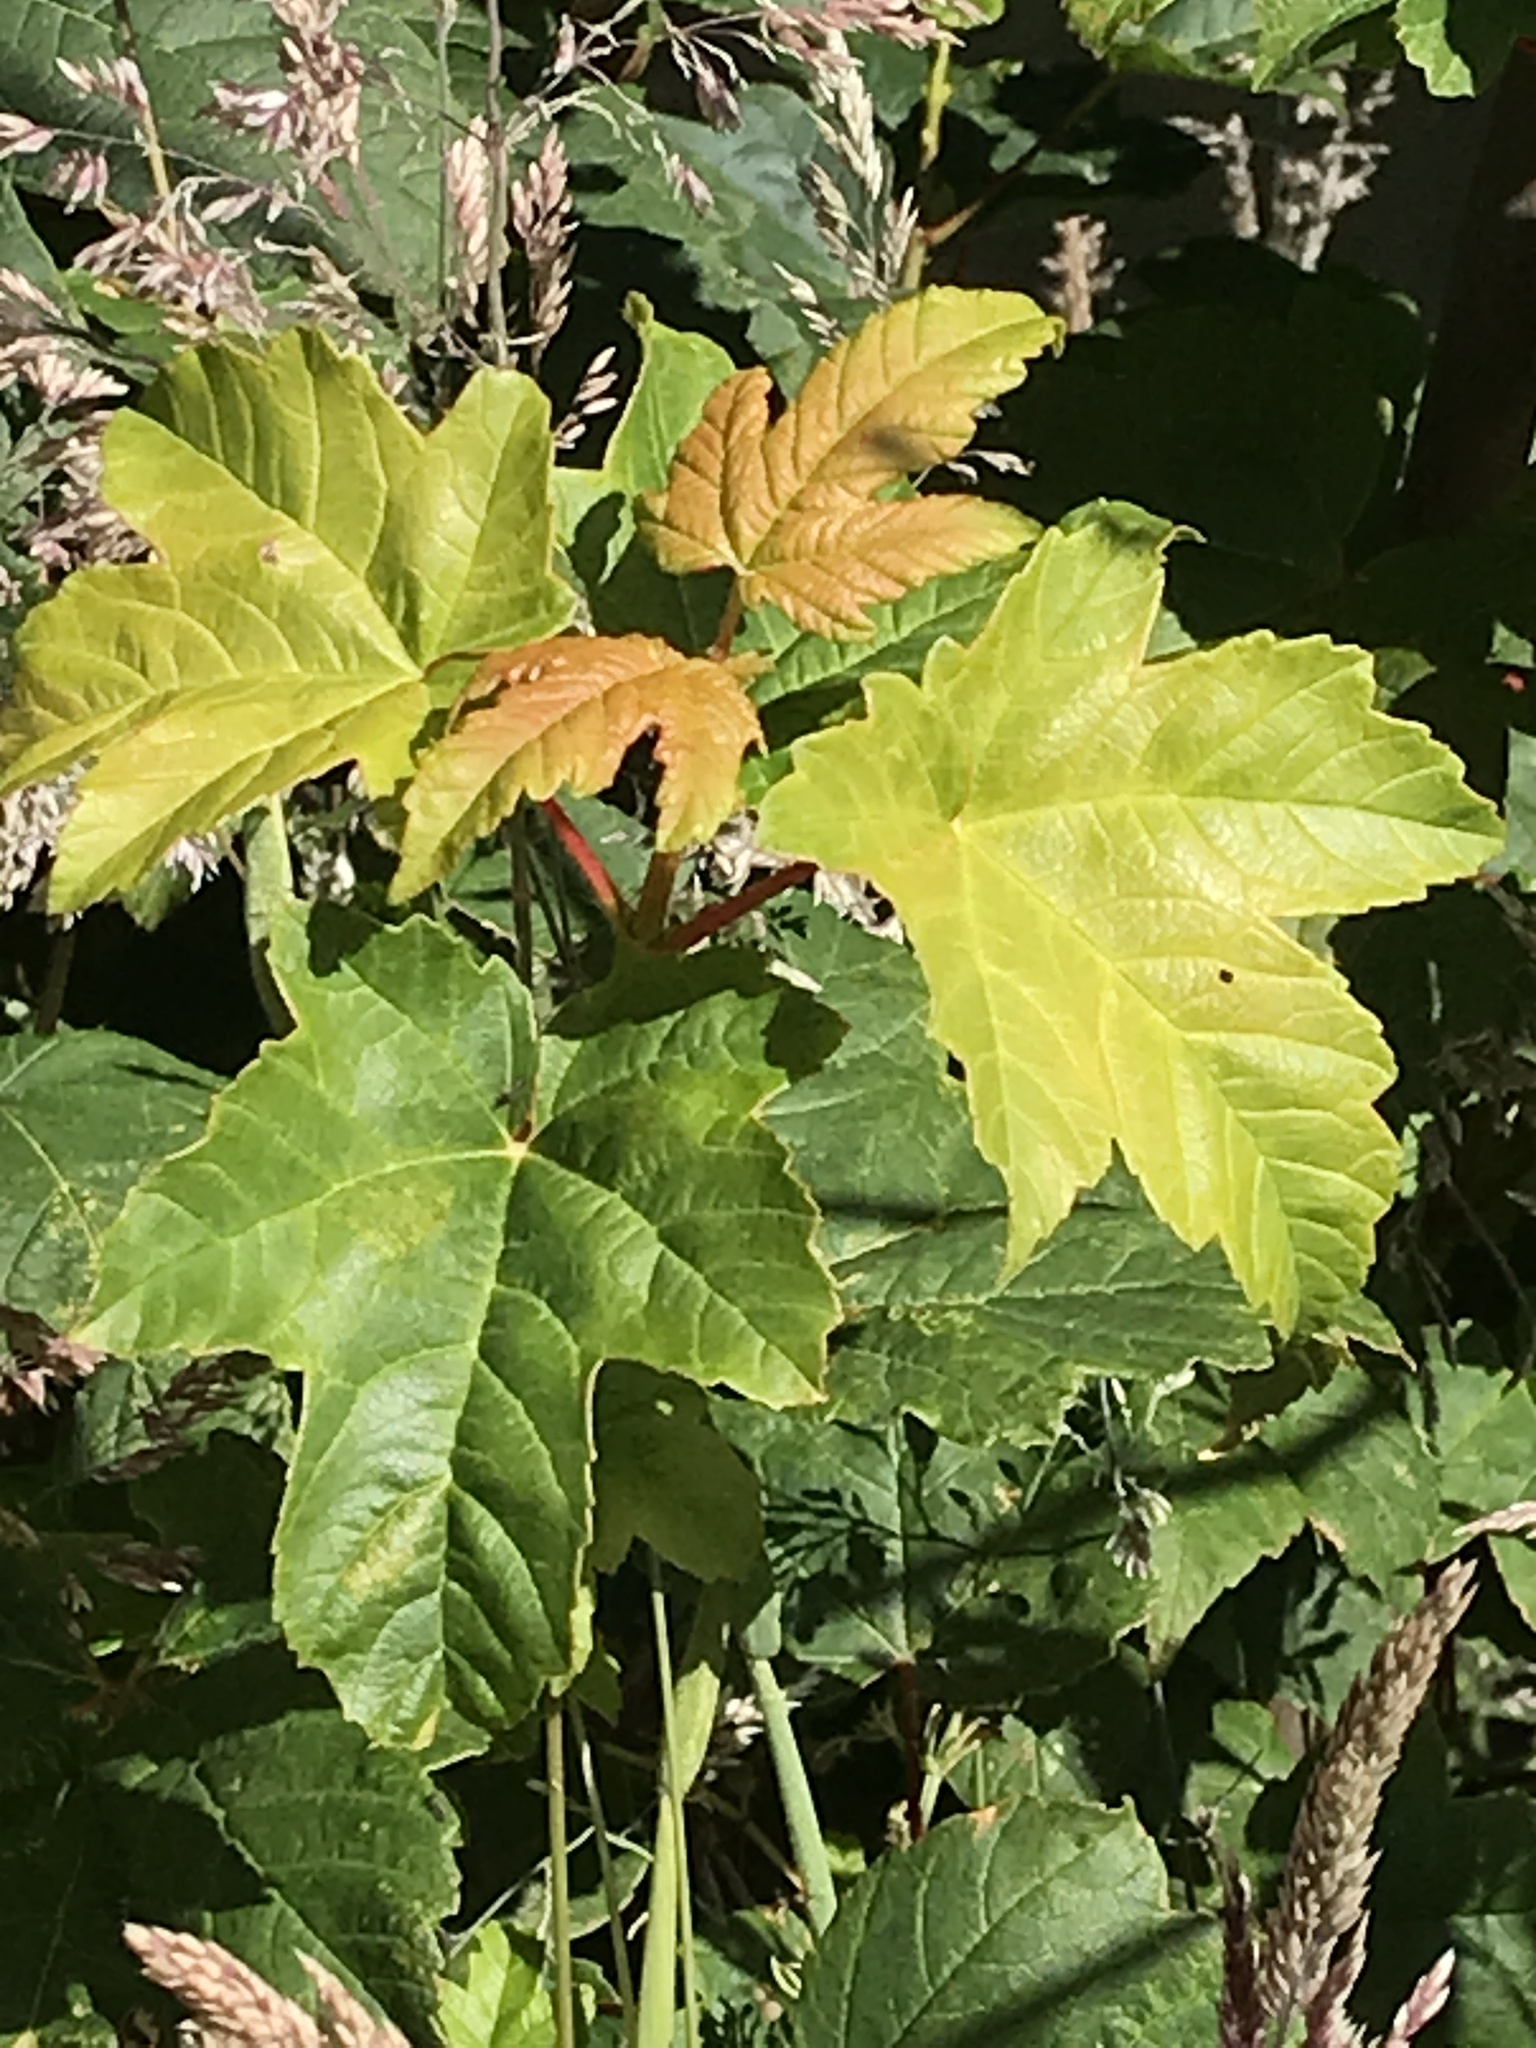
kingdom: Plantae
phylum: Tracheophyta
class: Magnoliopsida
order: Sapindales
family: Sapindaceae
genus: Acer
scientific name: Acer pseudoplatanus
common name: Sycamore
